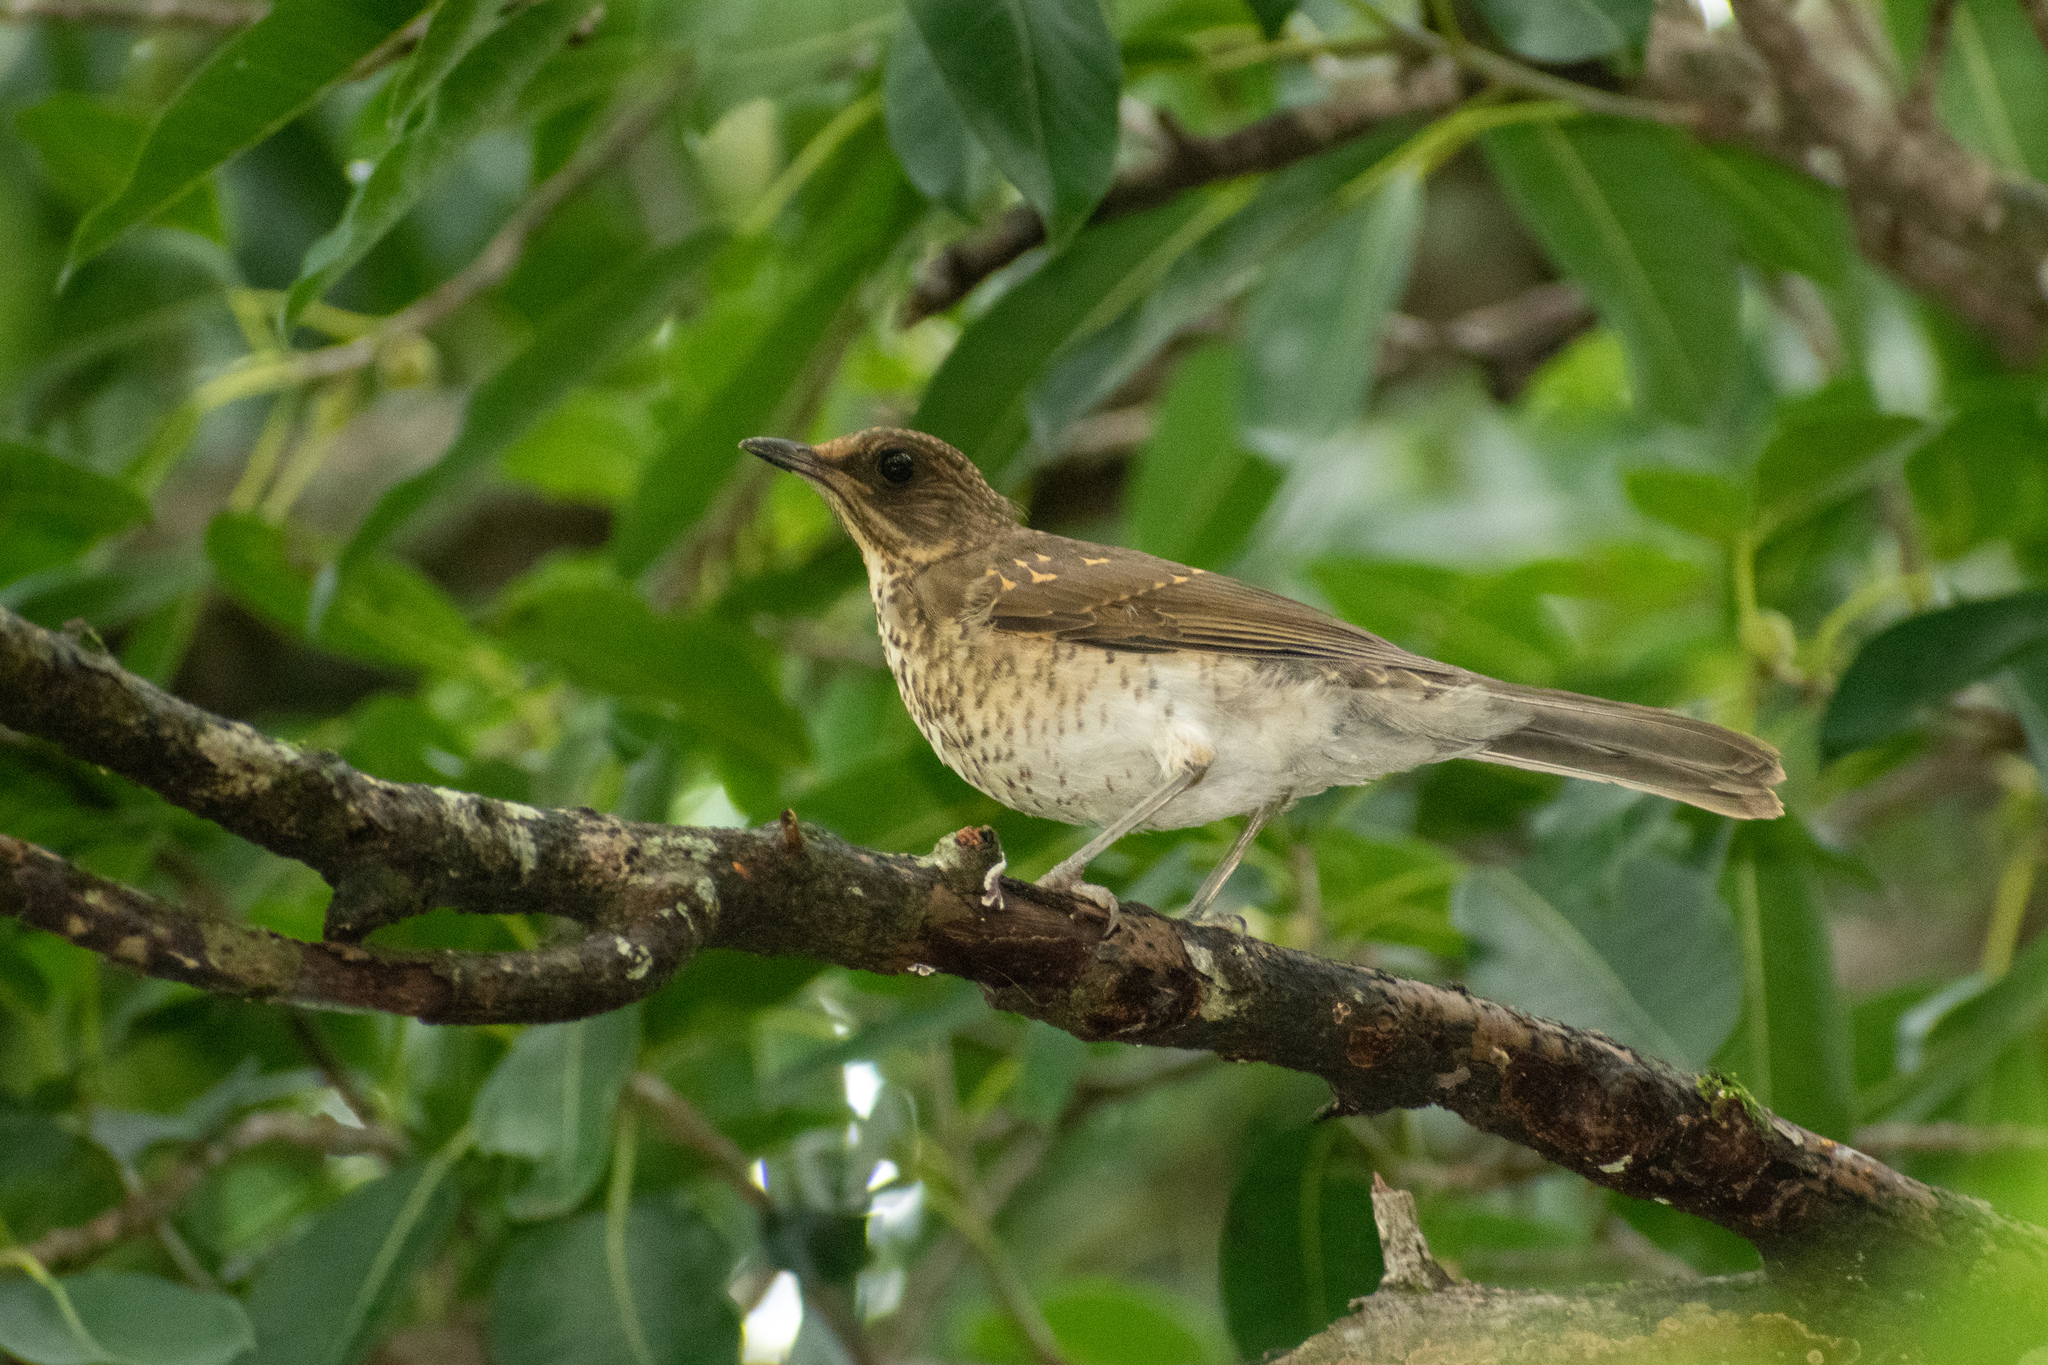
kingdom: Animalia
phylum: Chordata
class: Aves
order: Passeriformes
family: Turdidae
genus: Turdus
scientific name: Turdus amaurochalinus
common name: Creamy-bellied thrush
